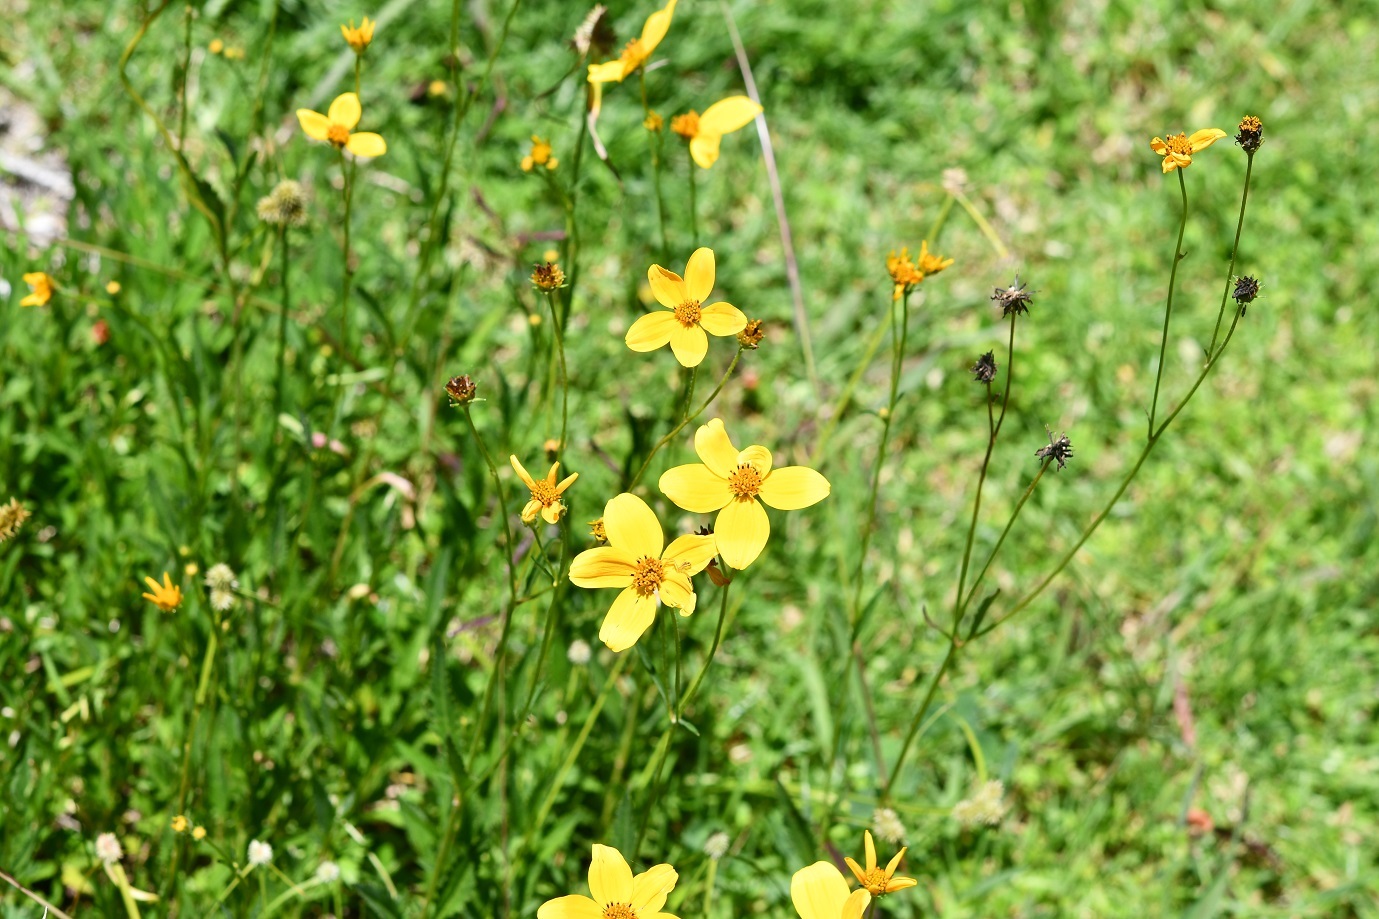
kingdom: Plantae
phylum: Tracheophyta
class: Magnoliopsida
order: Asterales
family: Asteraceae
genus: Bidens
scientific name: Bidens aurea
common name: Arizona beggar-ticks
